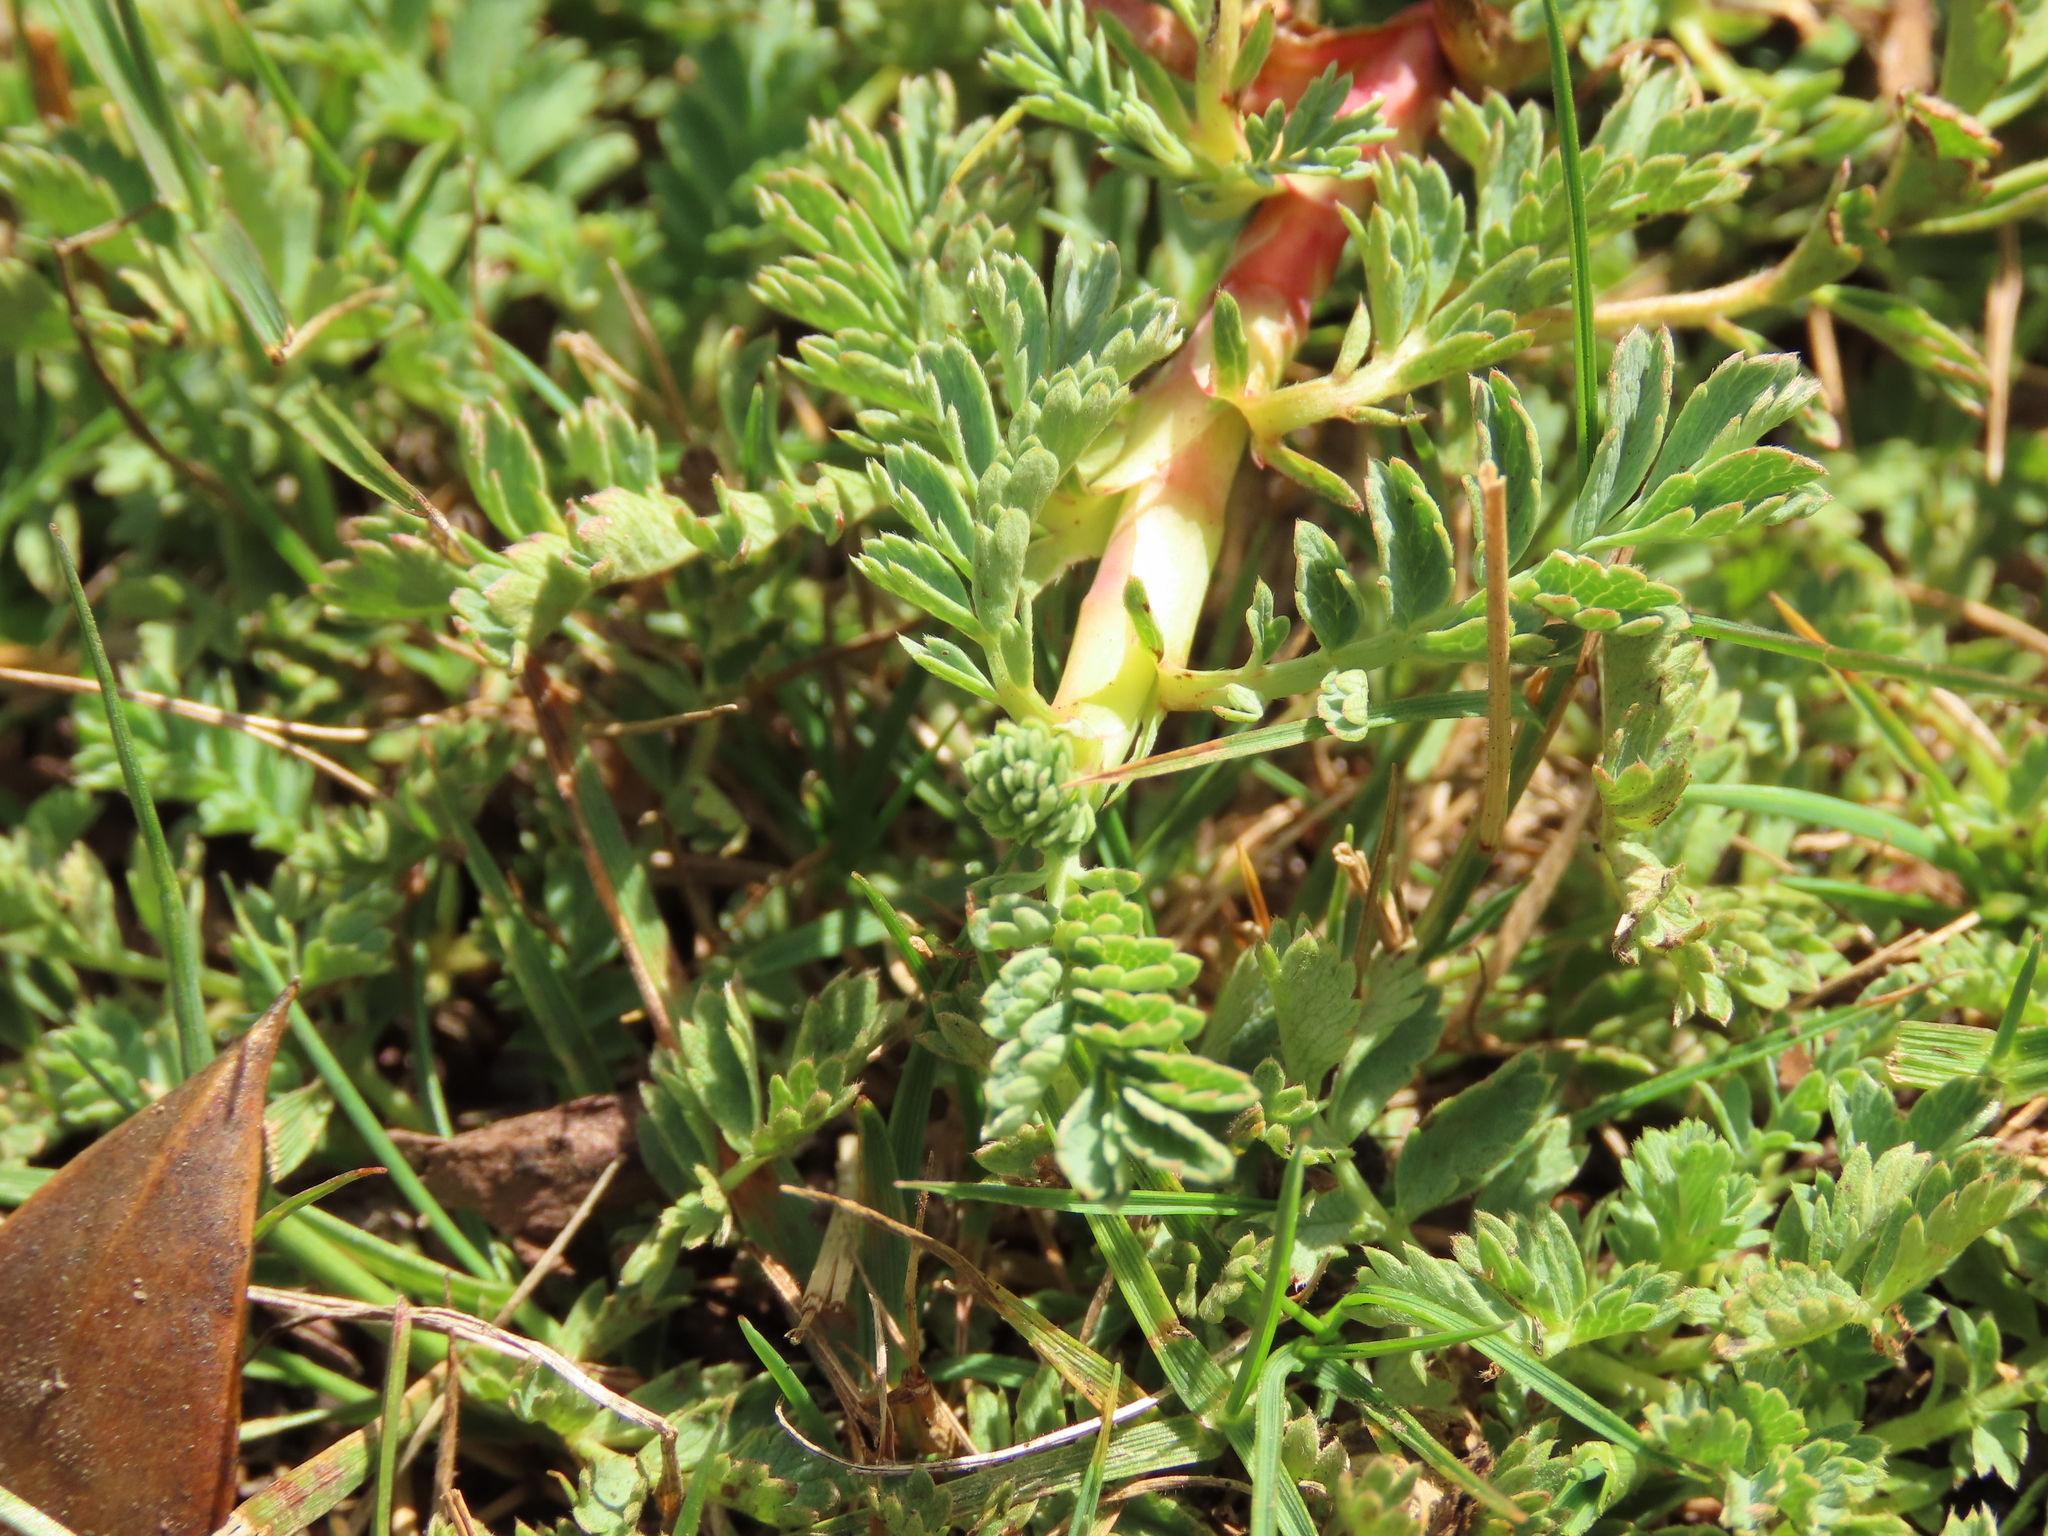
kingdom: Plantae
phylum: Tracheophyta
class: Magnoliopsida
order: Rosales
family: Rosaceae
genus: Acaena
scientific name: Acaena magellanica
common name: New zealand burr
